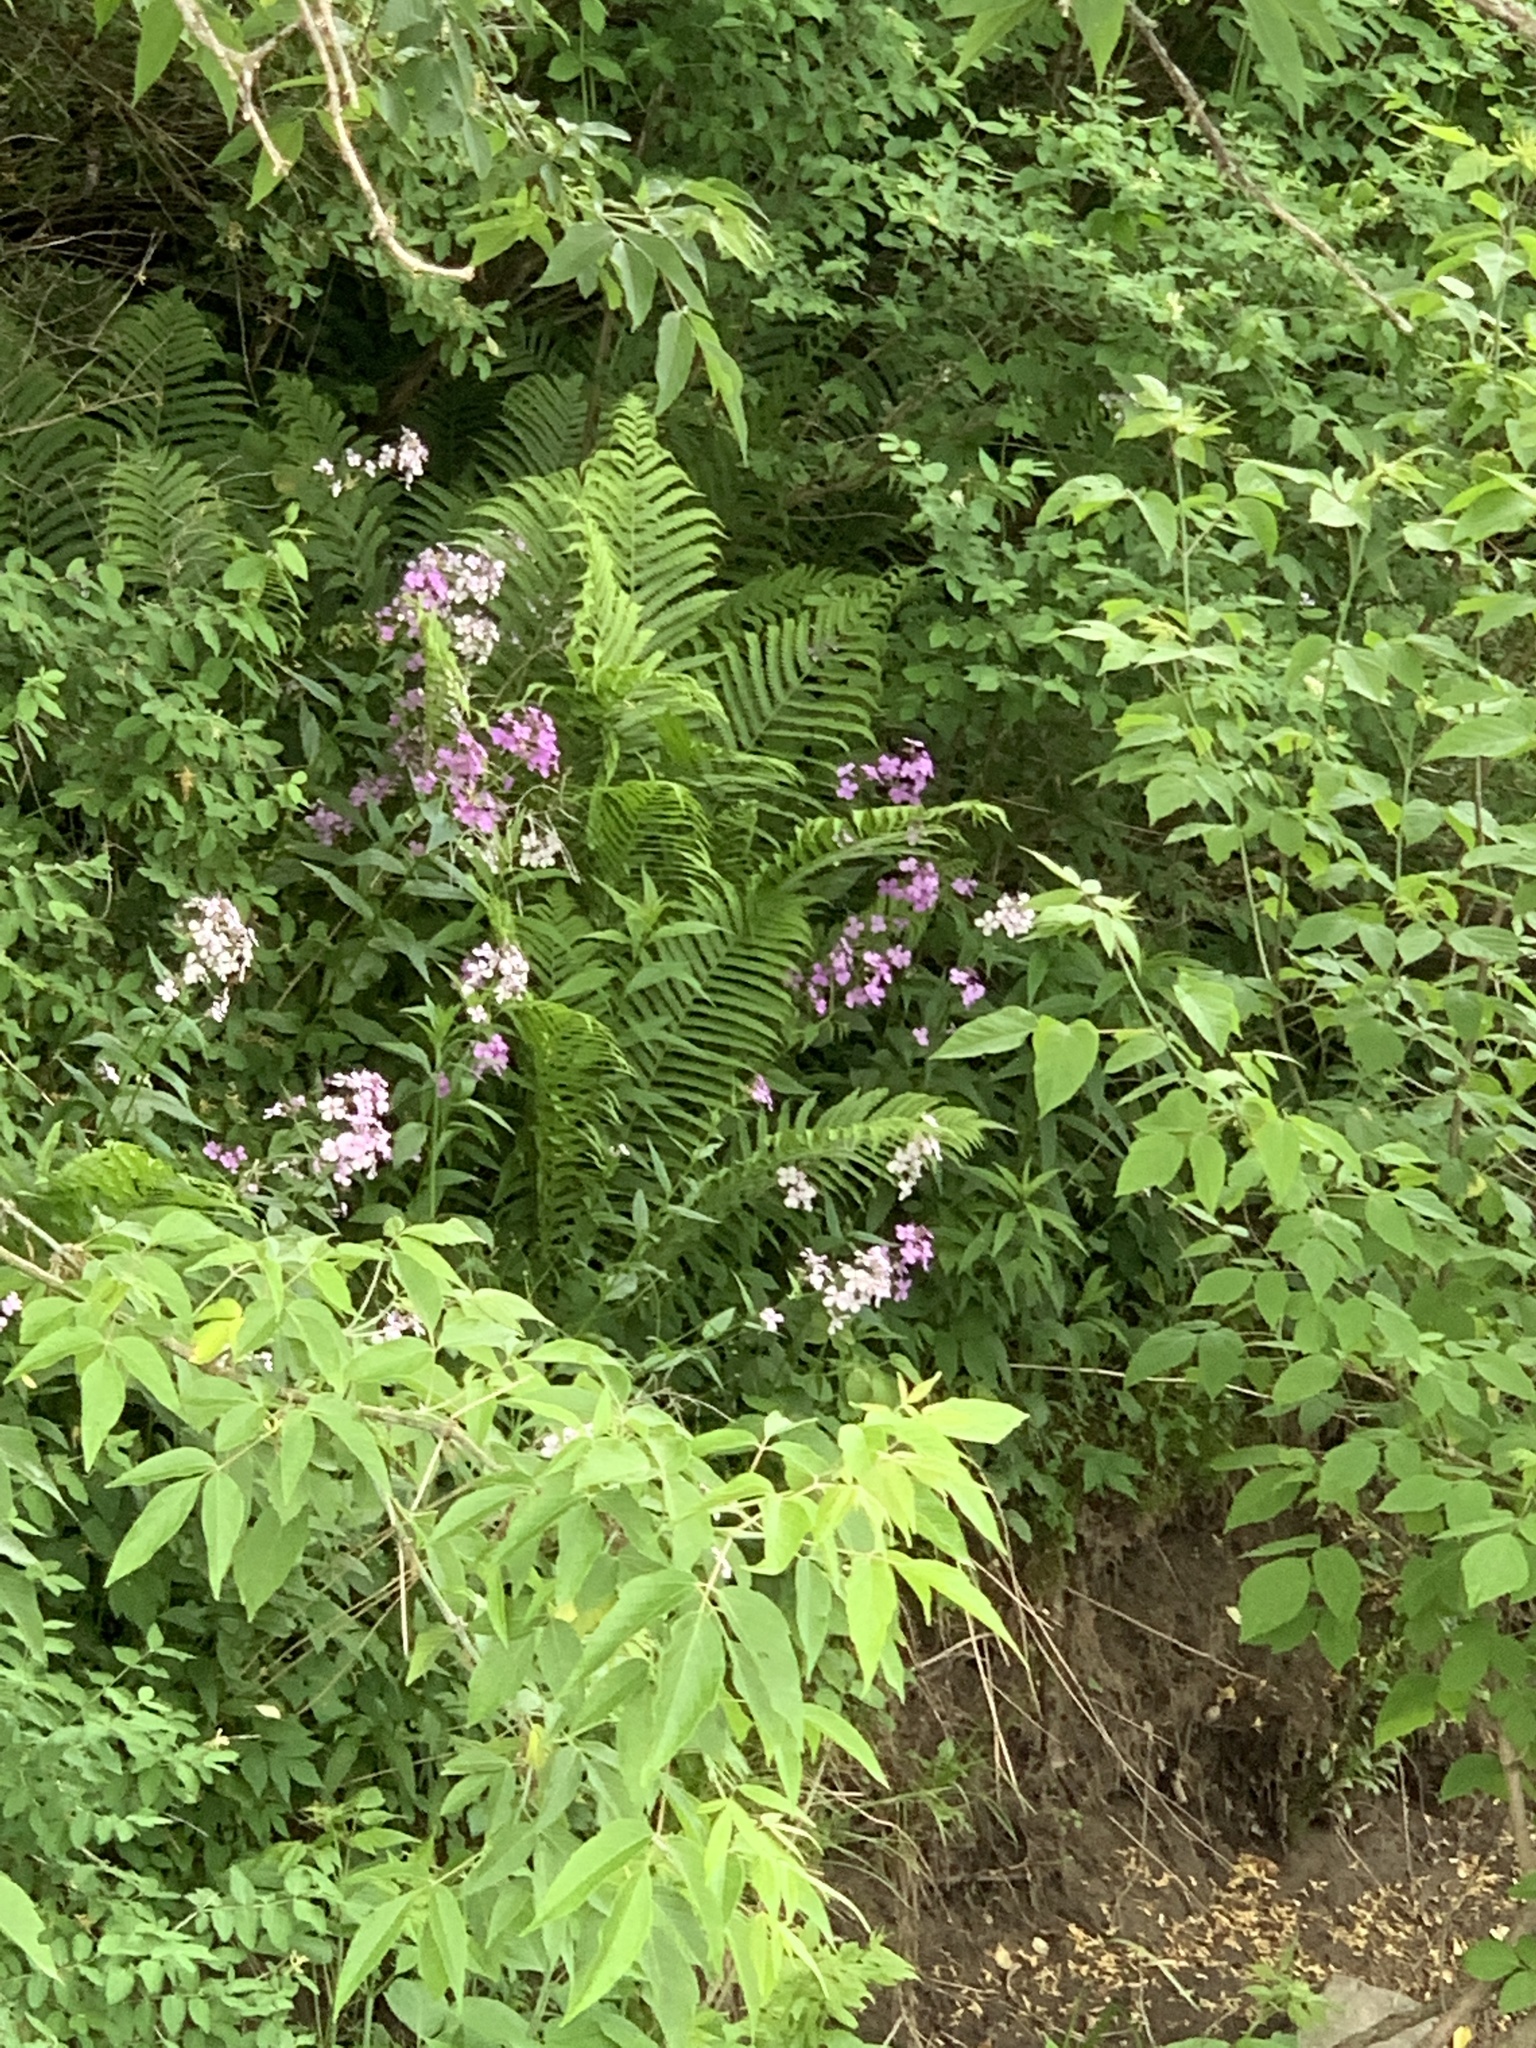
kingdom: Plantae
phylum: Tracheophyta
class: Magnoliopsida
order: Brassicales
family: Brassicaceae
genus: Hesperis
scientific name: Hesperis matronalis
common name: Dame's-violet
